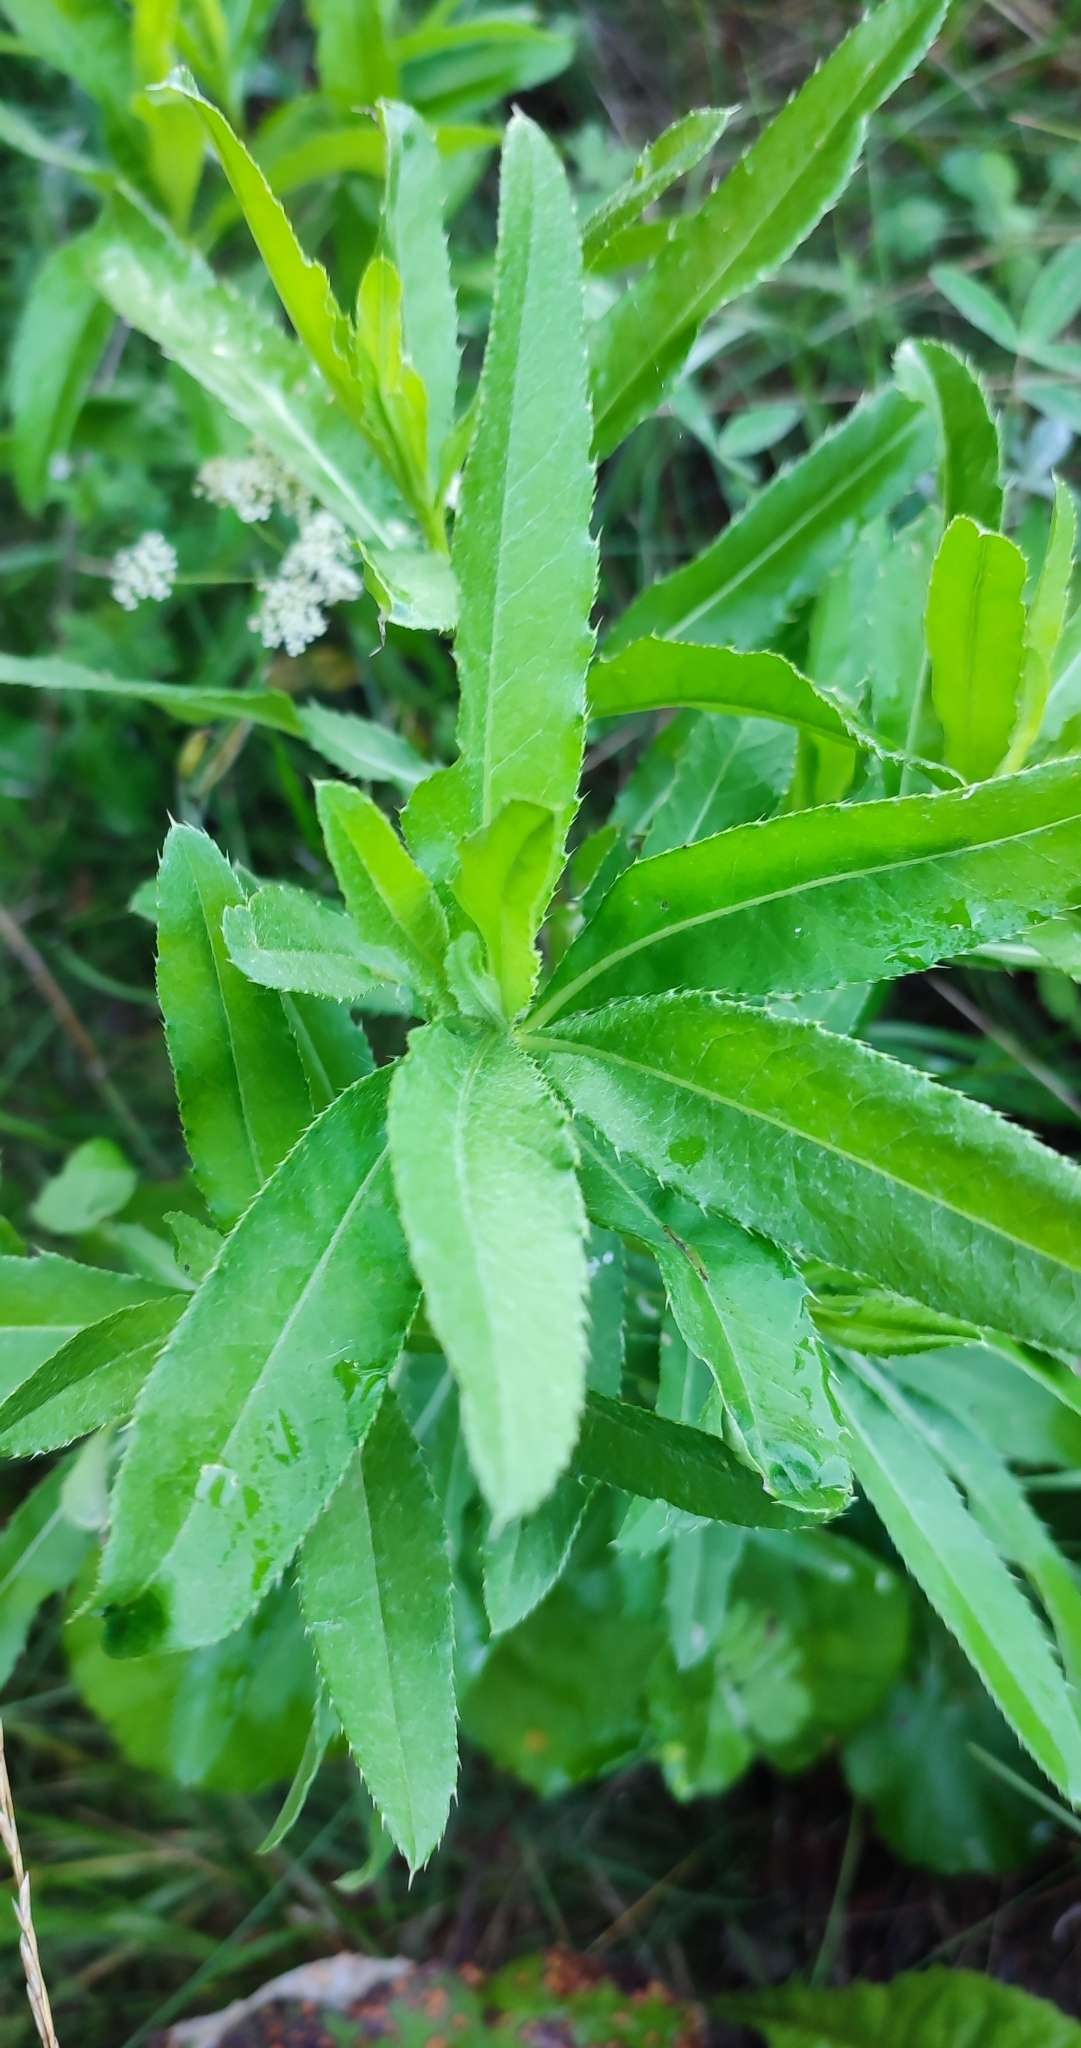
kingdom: Plantae
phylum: Tracheophyta
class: Magnoliopsida
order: Asterales
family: Asteraceae
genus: Cirsium
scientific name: Cirsium arvense
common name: Creeping thistle
